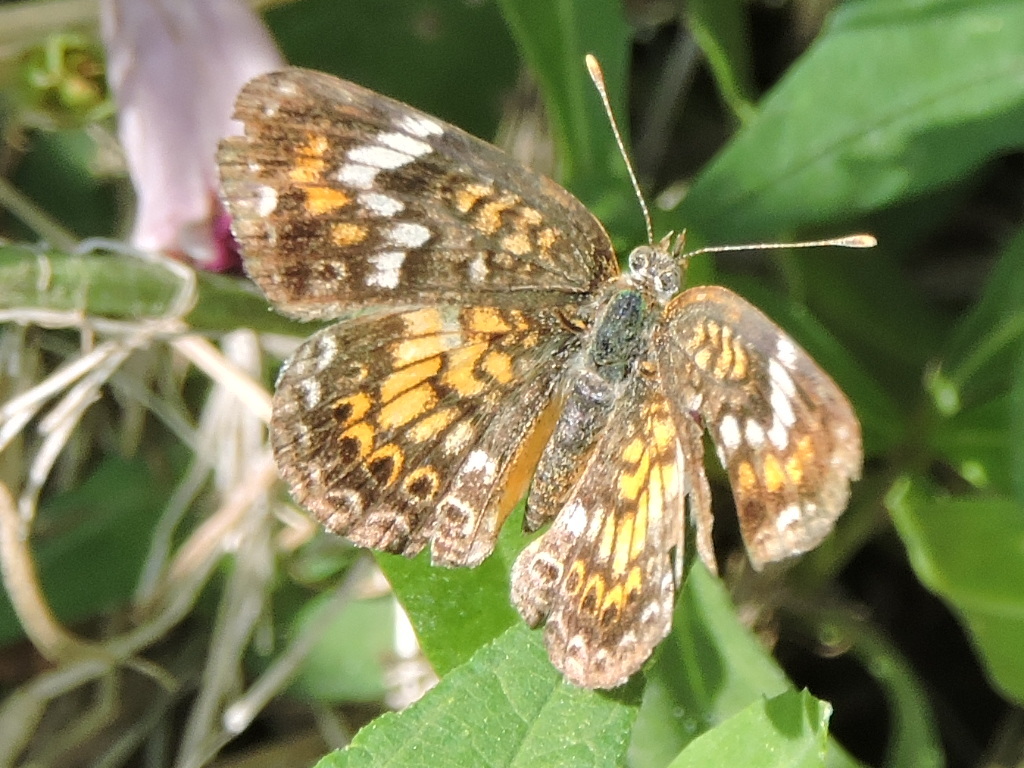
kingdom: Animalia
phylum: Arthropoda
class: Insecta
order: Lepidoptera
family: Nymphalidae
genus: Phyciodes
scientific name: Phyciodes phaon
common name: Phaon crescent
